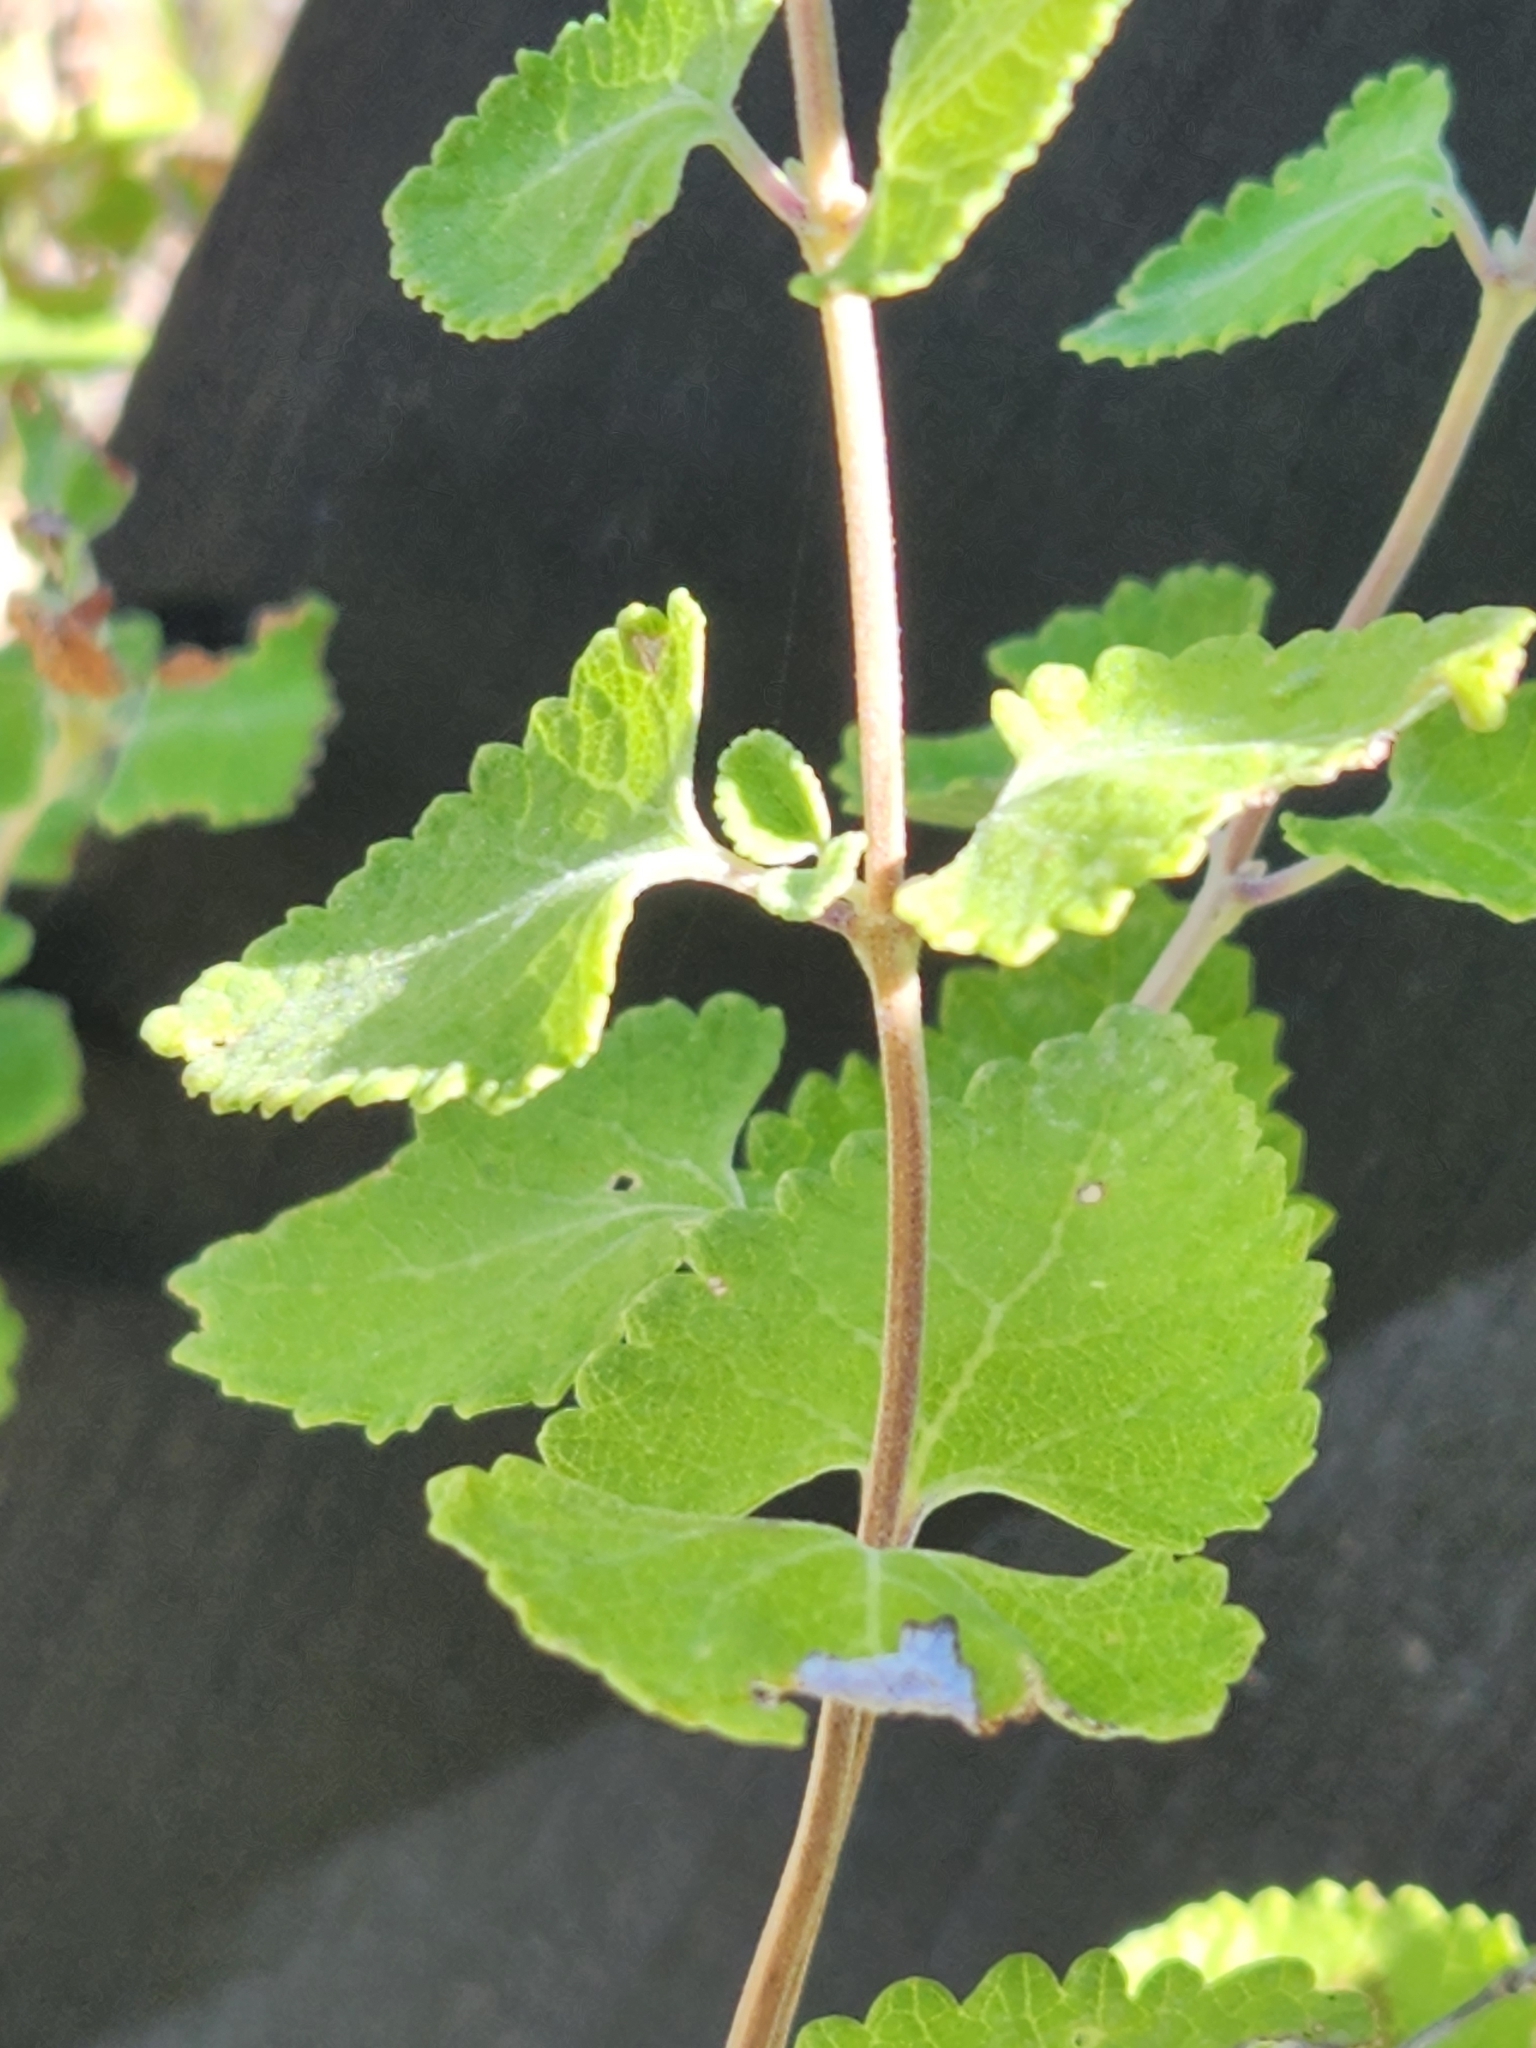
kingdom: Plantae
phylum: Tracheophyta
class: Magnoliopsida
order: Lamiales
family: Lamiaceae
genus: Salvia
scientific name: Salvia ballotiflora
